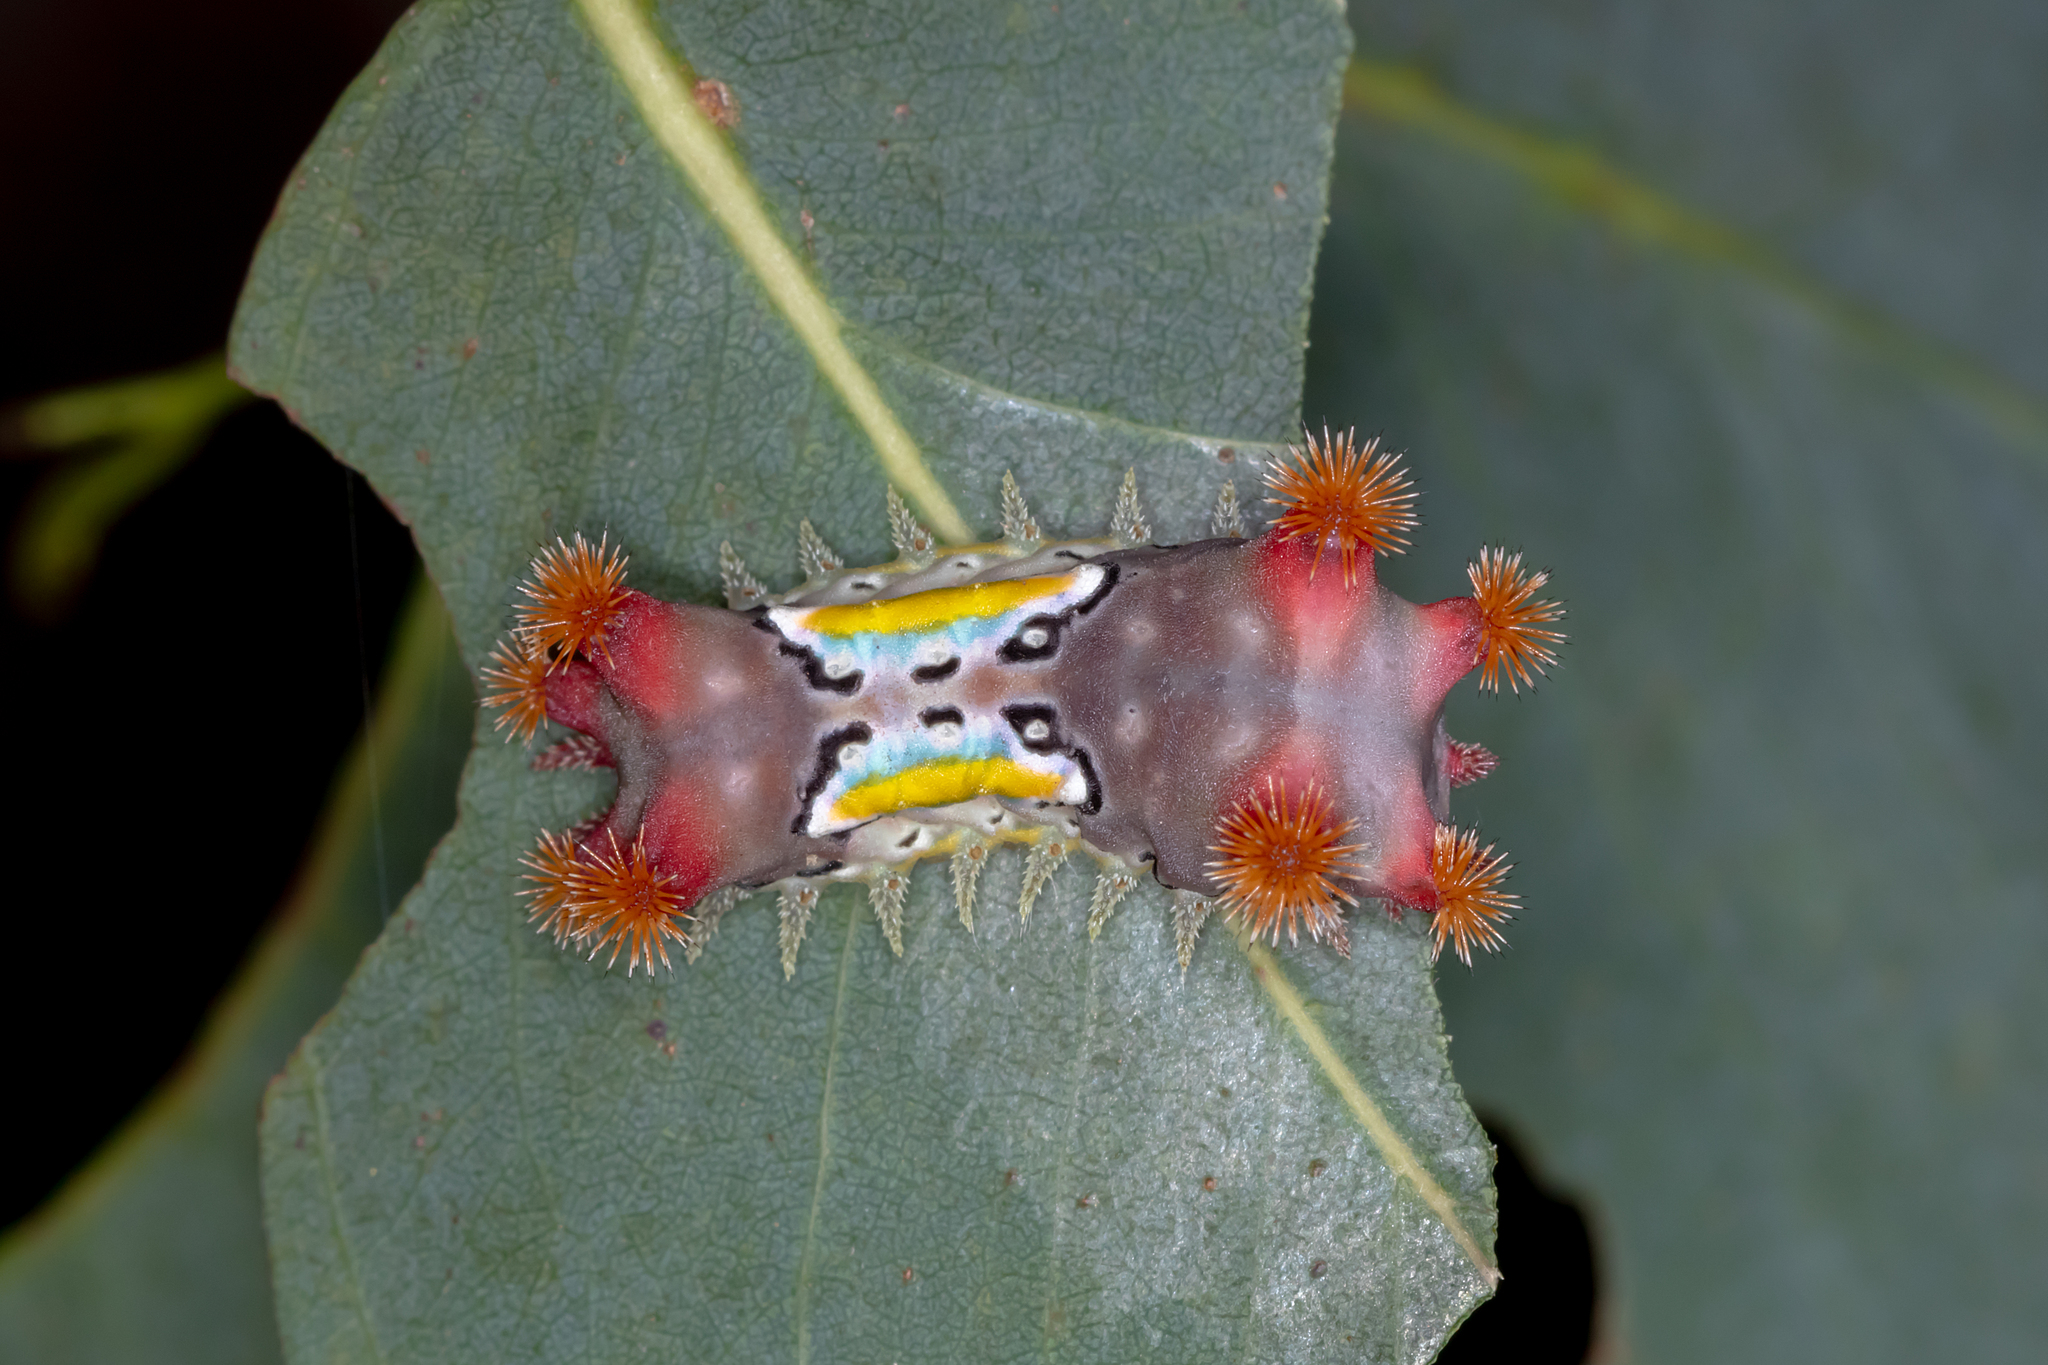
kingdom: Animalia
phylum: Arthropoda
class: Insecta
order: Lepidoptera
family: Limacodidae
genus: Doratifera
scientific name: Doratifera vulnerans
